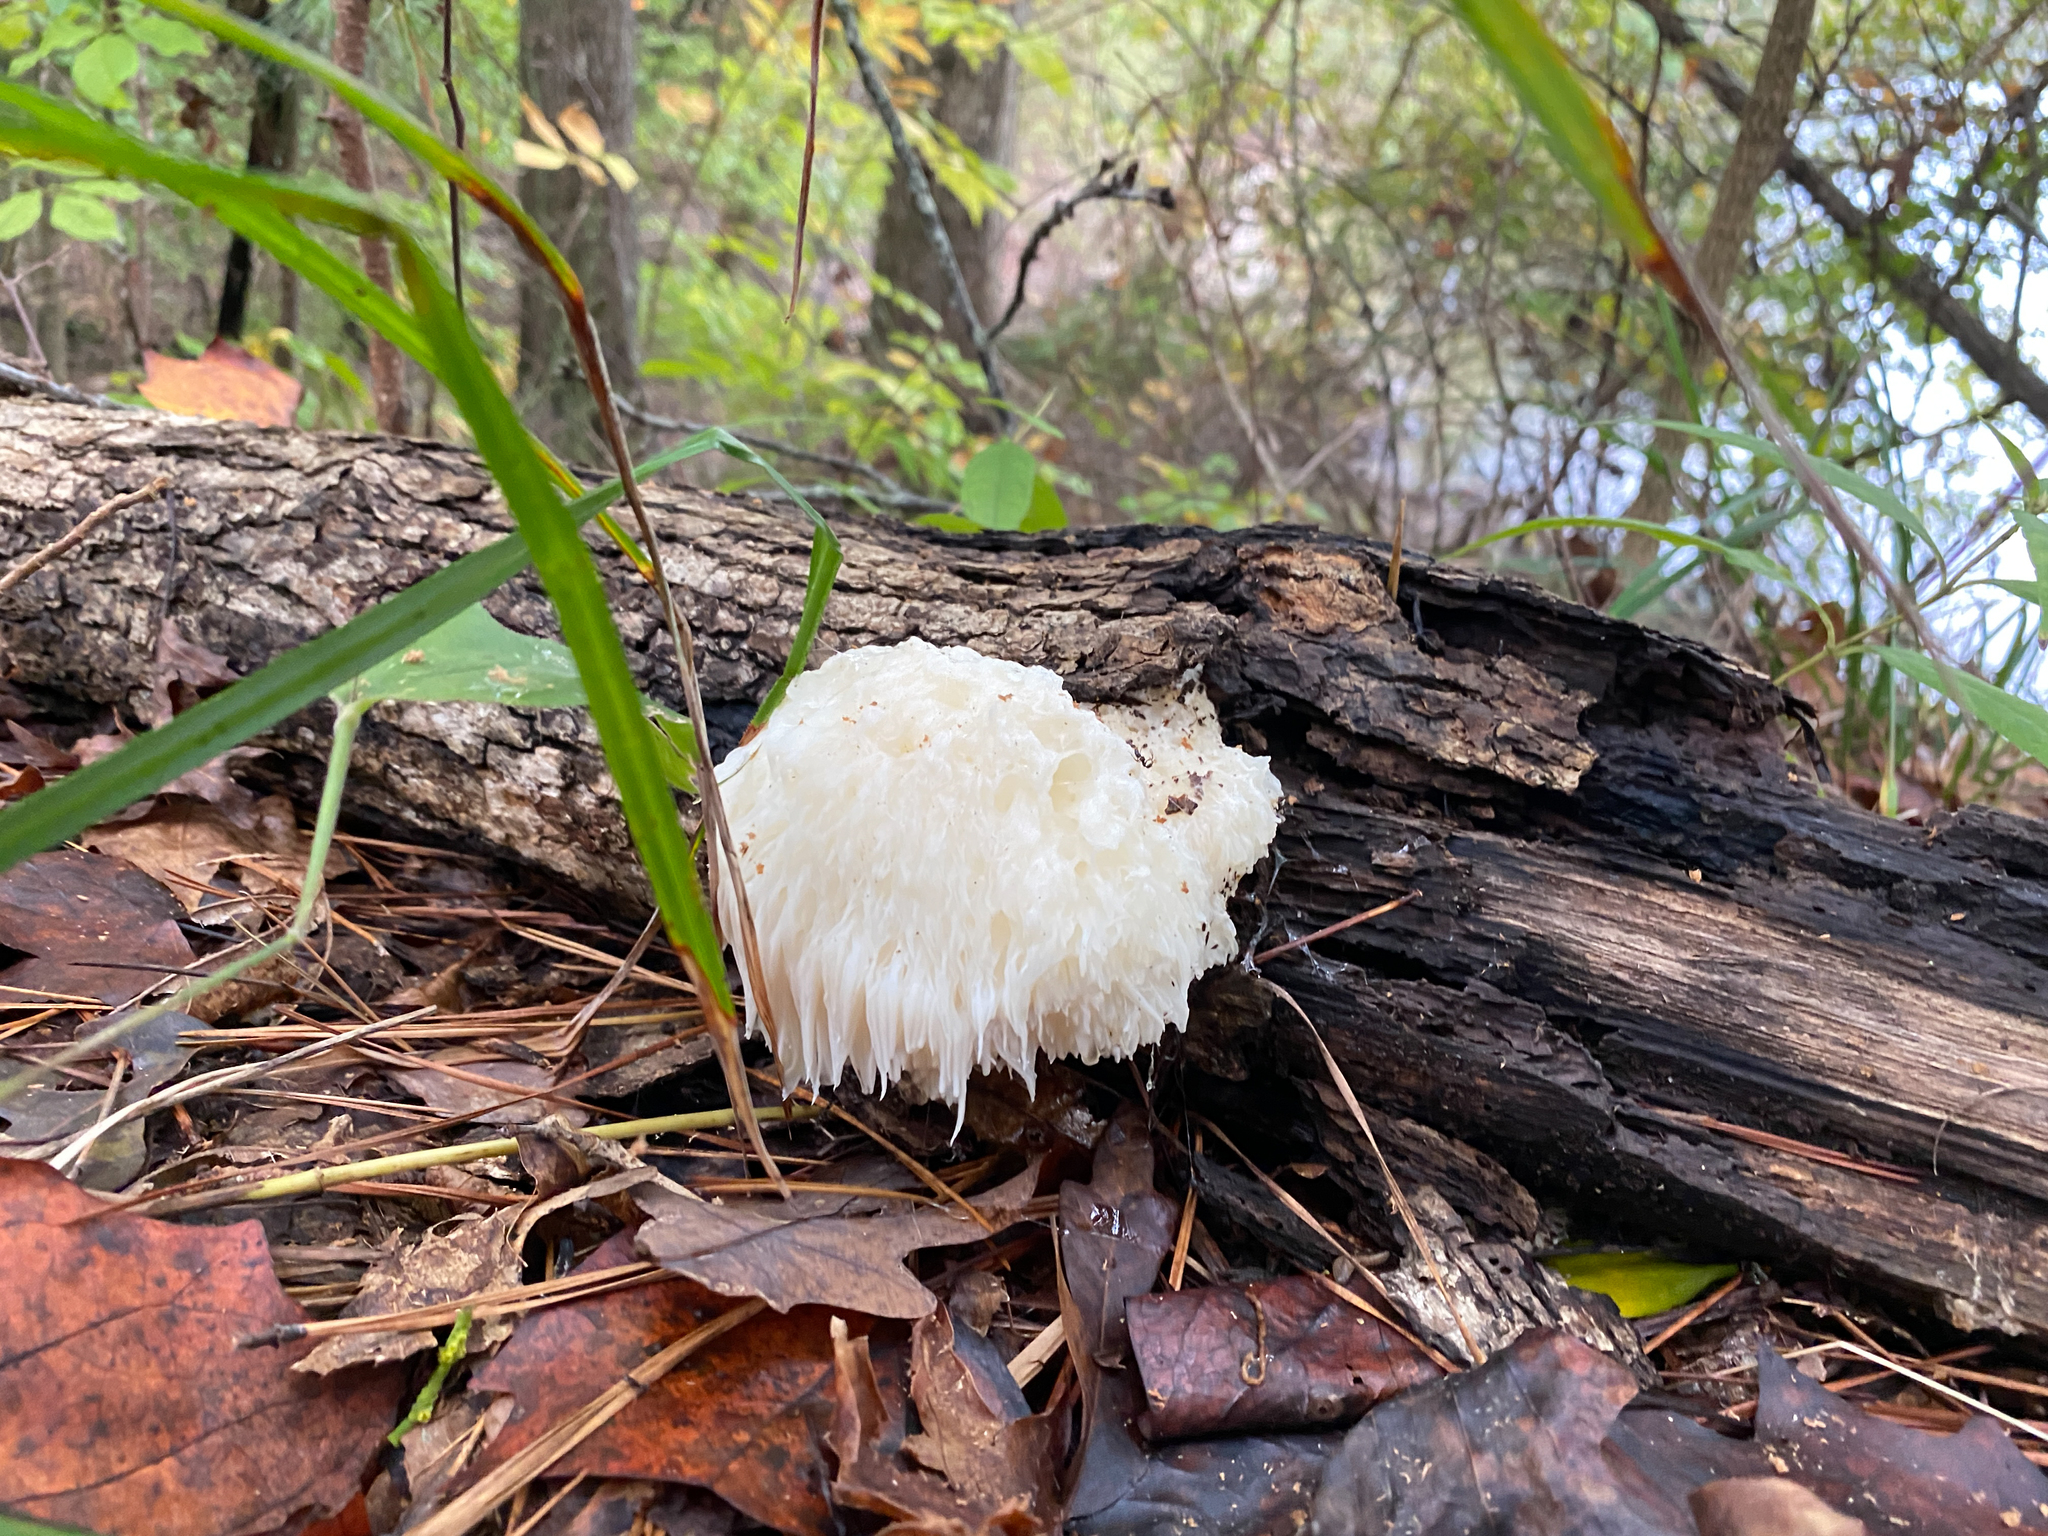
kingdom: Fungi
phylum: Basidiomycota
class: Agaricomycetes
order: Russulales
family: Hericiaceae
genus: Hericium
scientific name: Hericium erinaceus
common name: Bearded tooth
